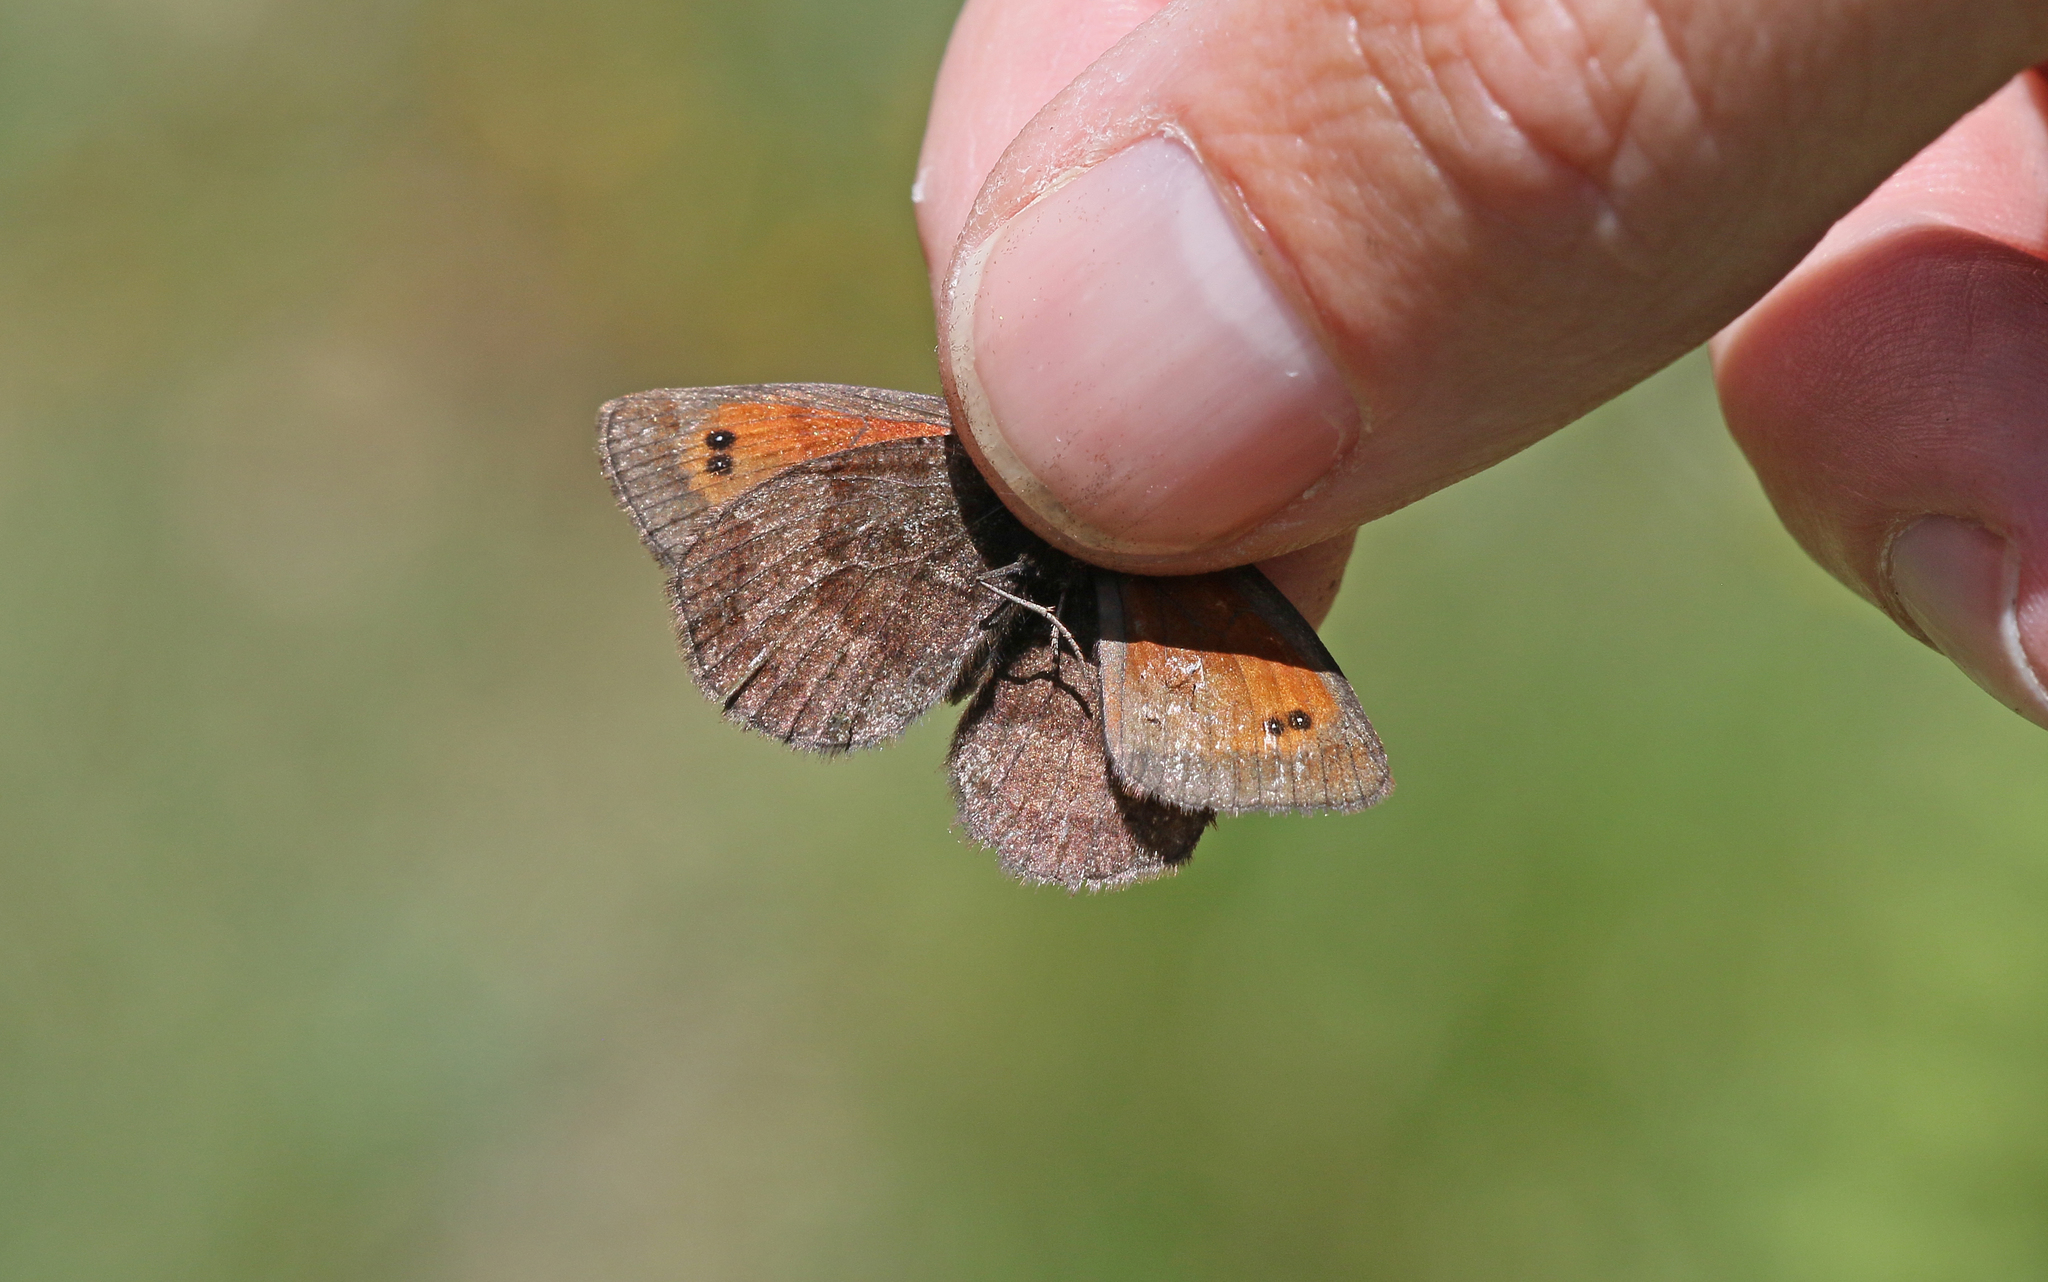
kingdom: Animalia
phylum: Arthropoda
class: Insecta
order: Lepidoptera
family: Nymphalidae
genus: Erebia
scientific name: Erebia mnestra
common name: Mnestra’s ringlet
